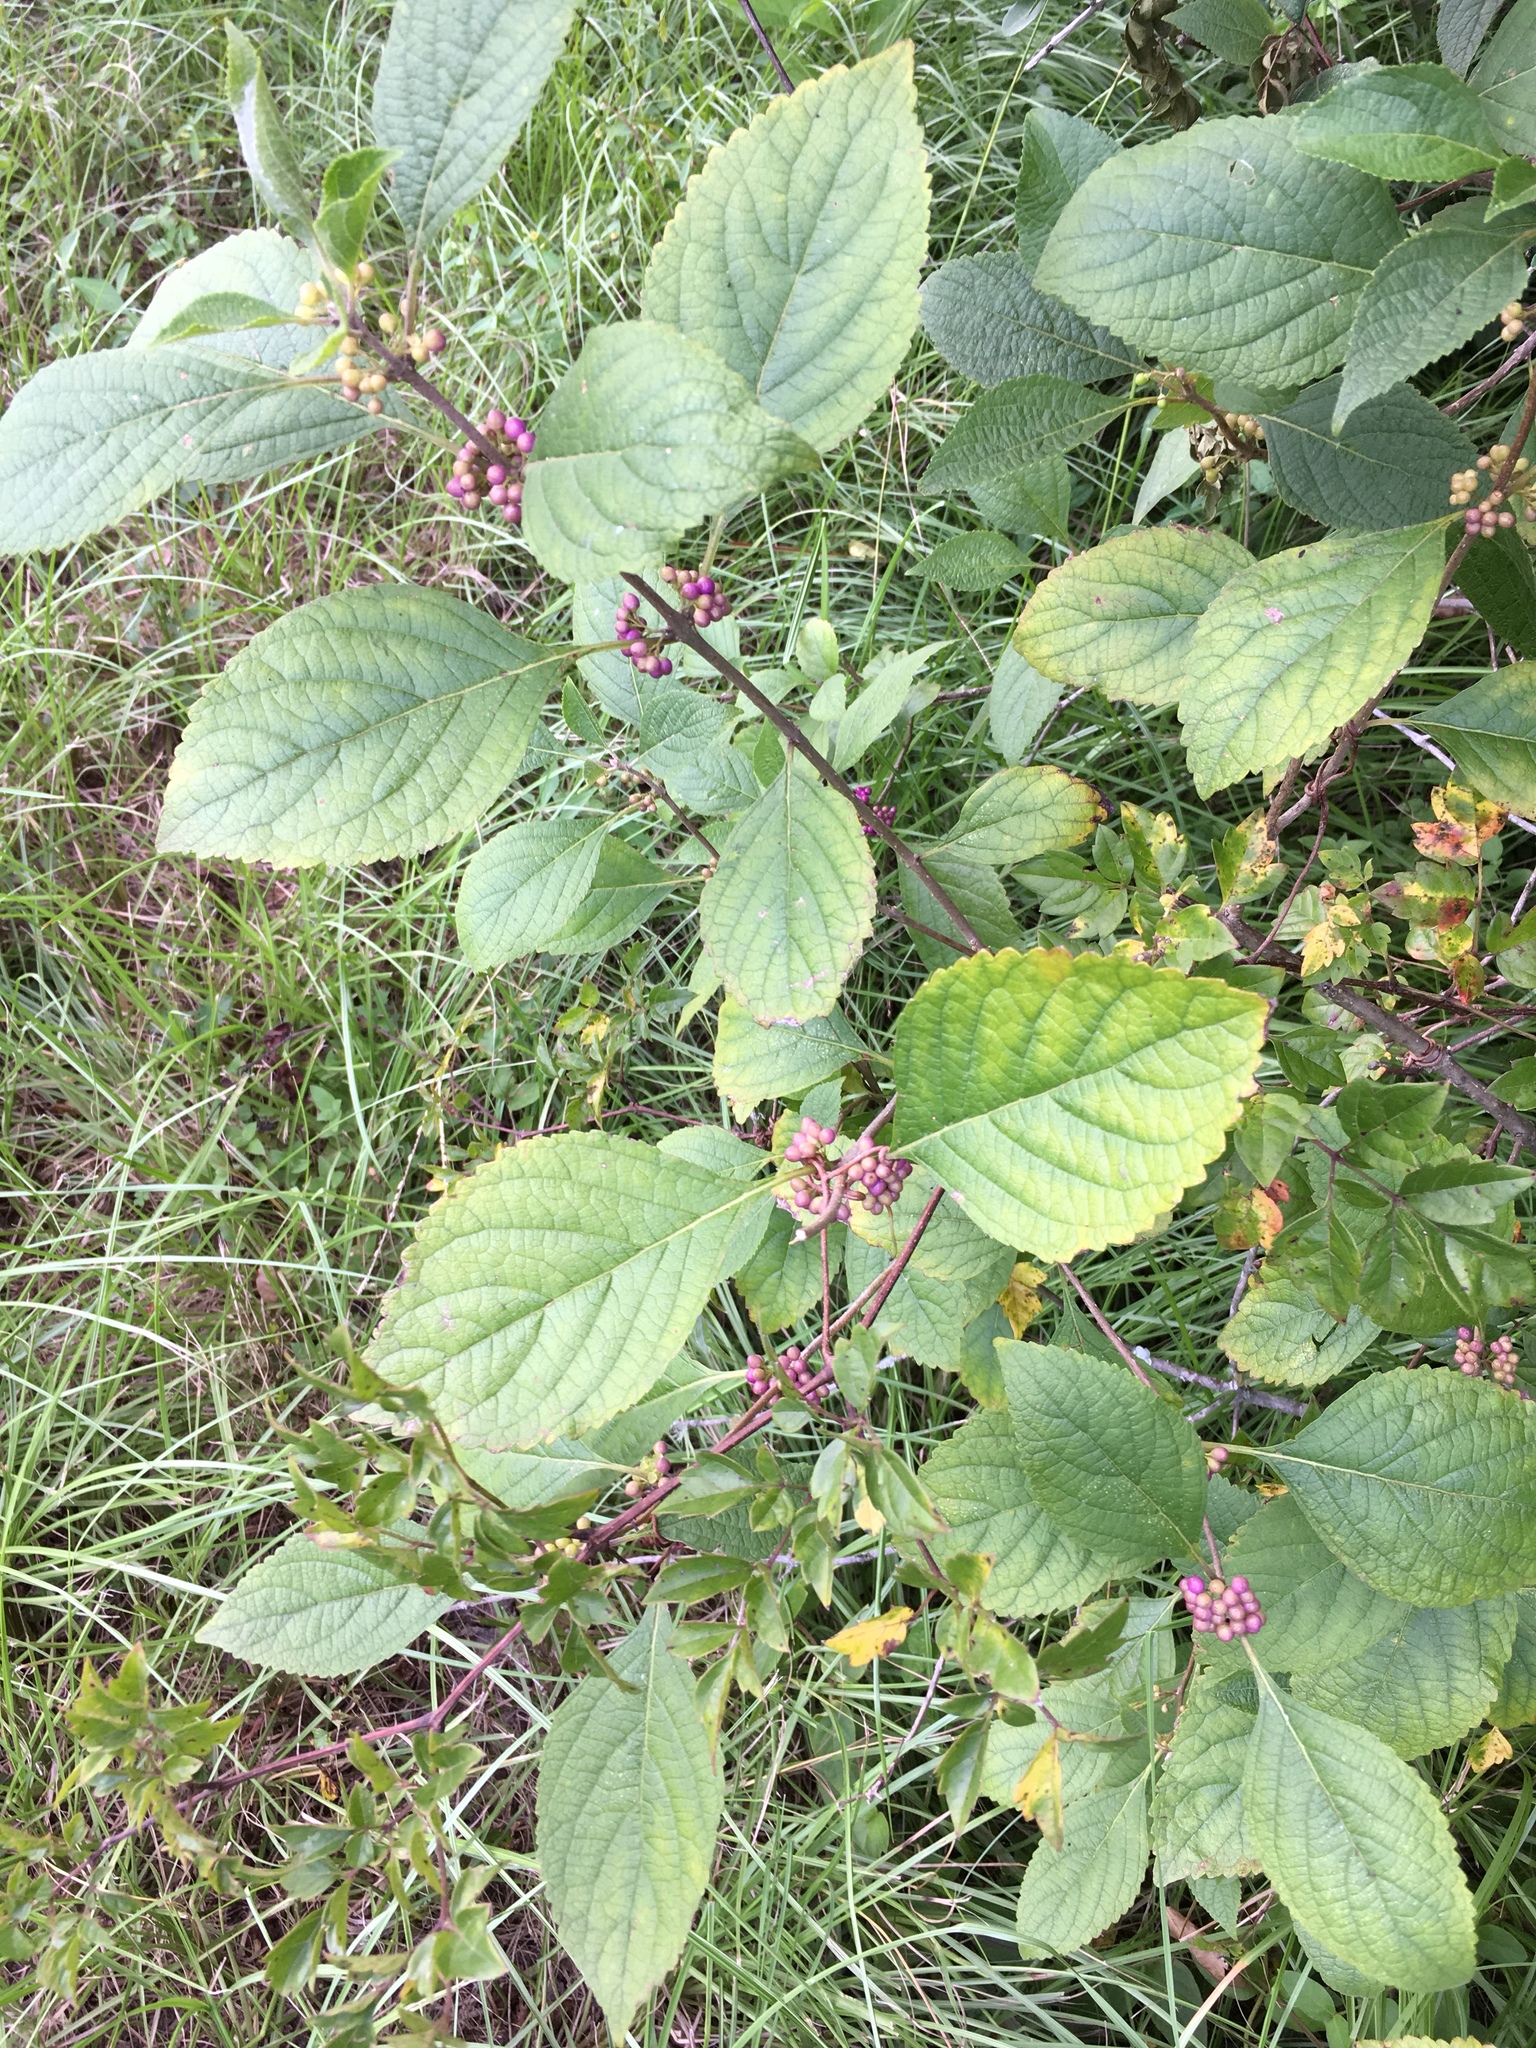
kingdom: Plantae
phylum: Tracheophyta
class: Magnoliopsida
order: Lamiales
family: Lamiaceae
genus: Callicarpa
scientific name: Callicarpa americana
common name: American beautyberry
